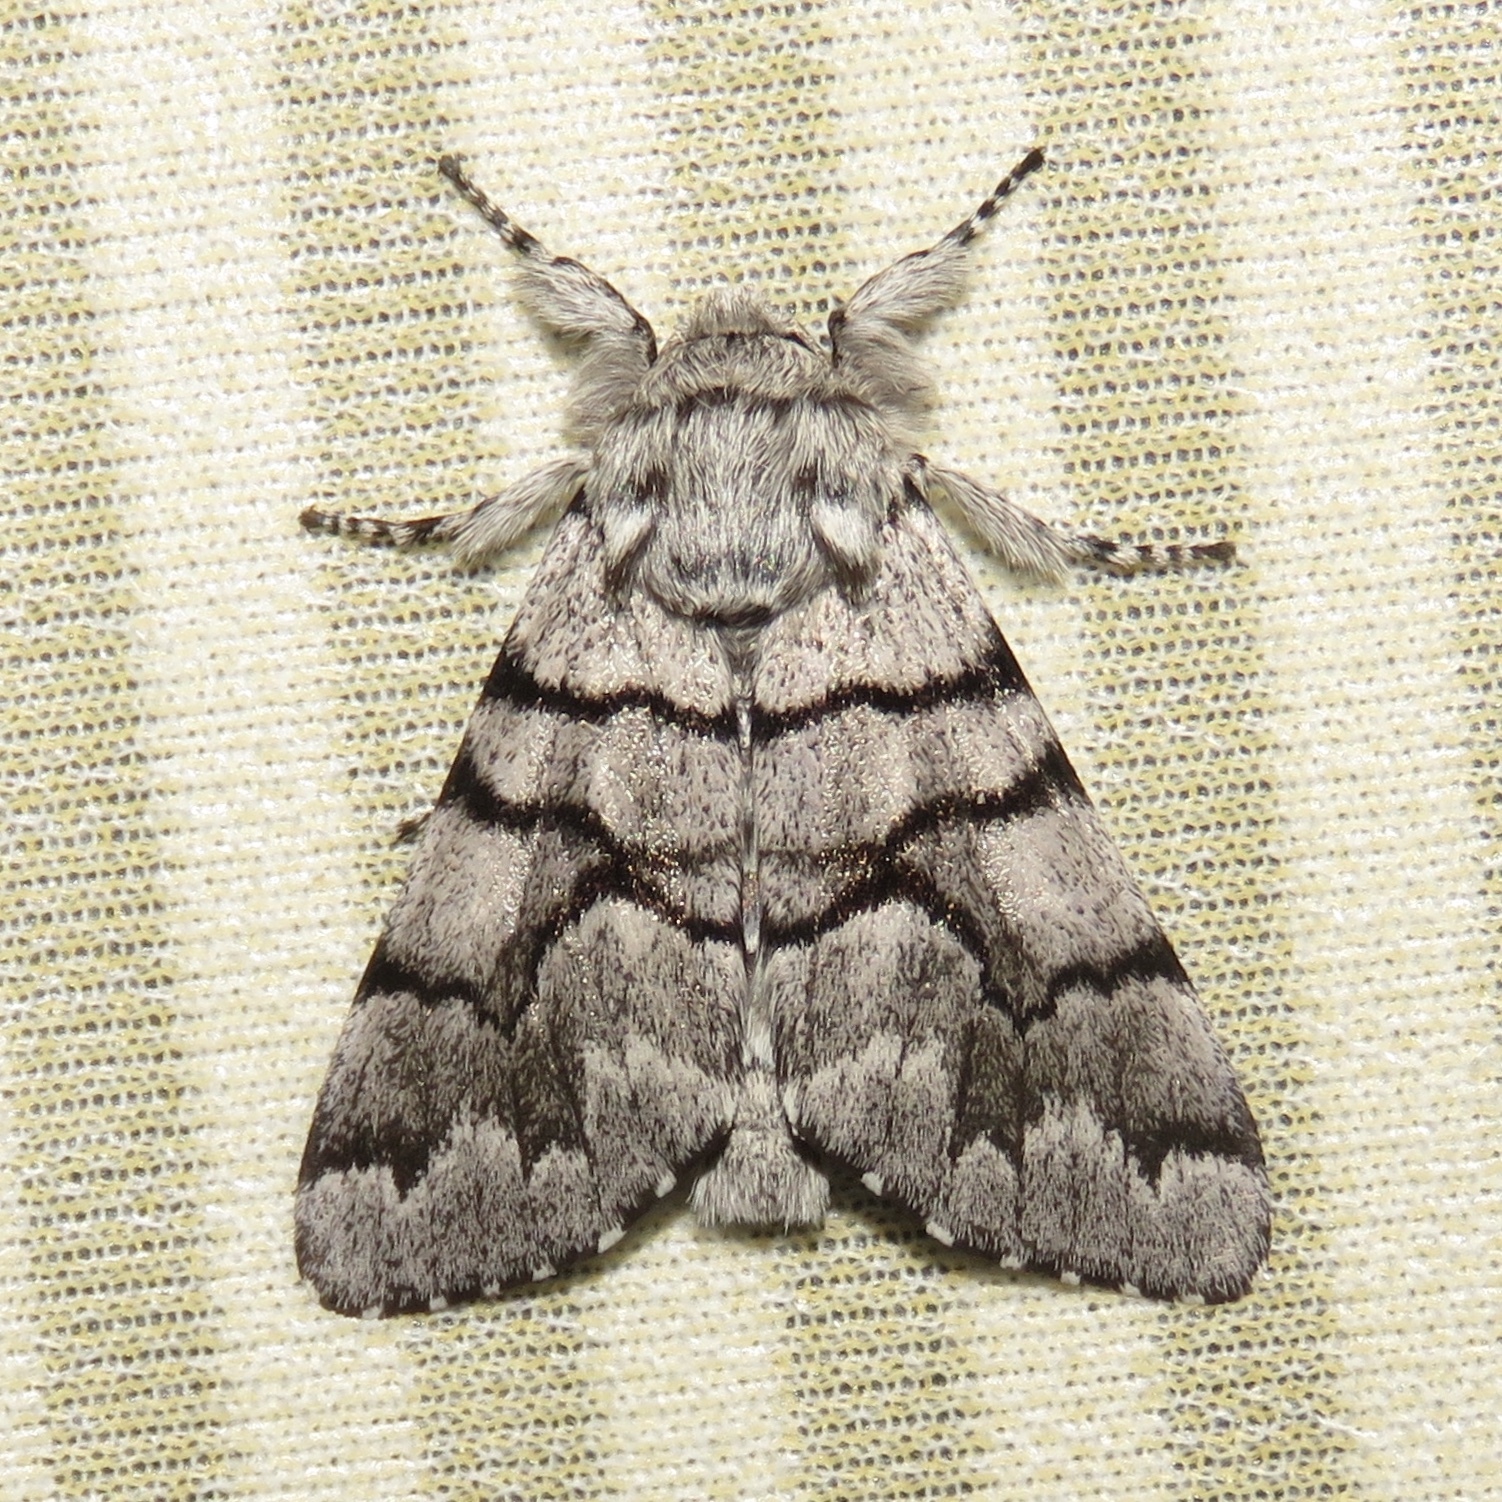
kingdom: Animalia
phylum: Arthropoda
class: Insecta
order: Lepidoptera
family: Noctuidae
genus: Panthea
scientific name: Panthea furcilla
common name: Eastern panthea moth
